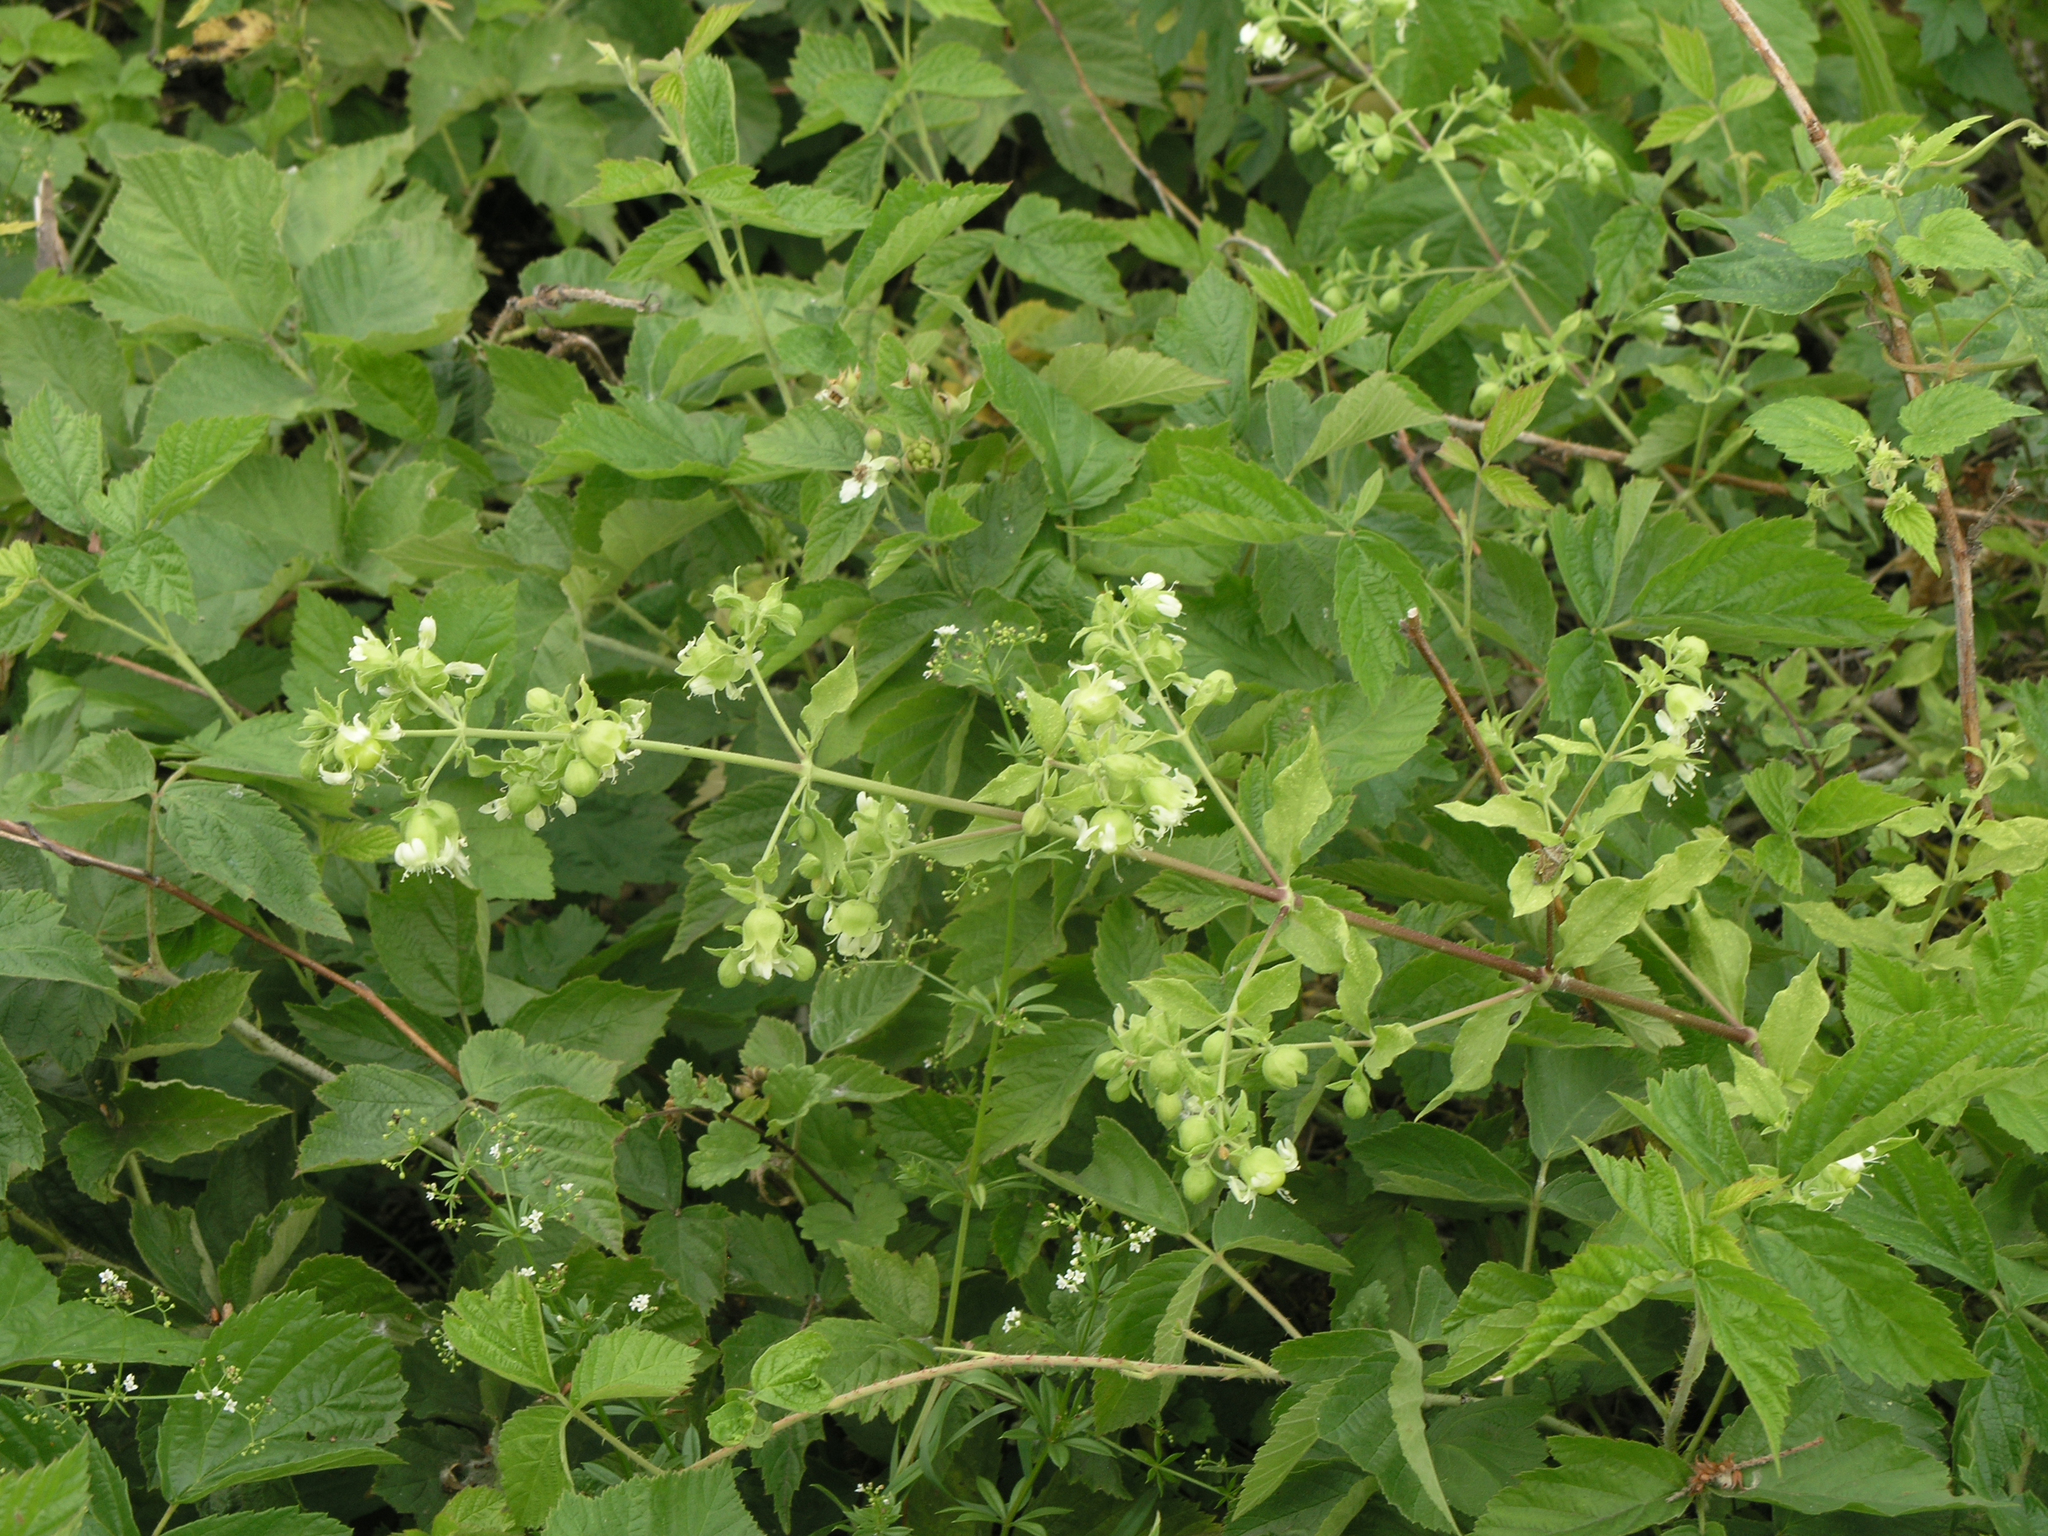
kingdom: Plantae
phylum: Tracheophyta
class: Magnoliopsida
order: Caryophyllales
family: Caryophyllaceae
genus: Silene
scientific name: Silene baccifera
